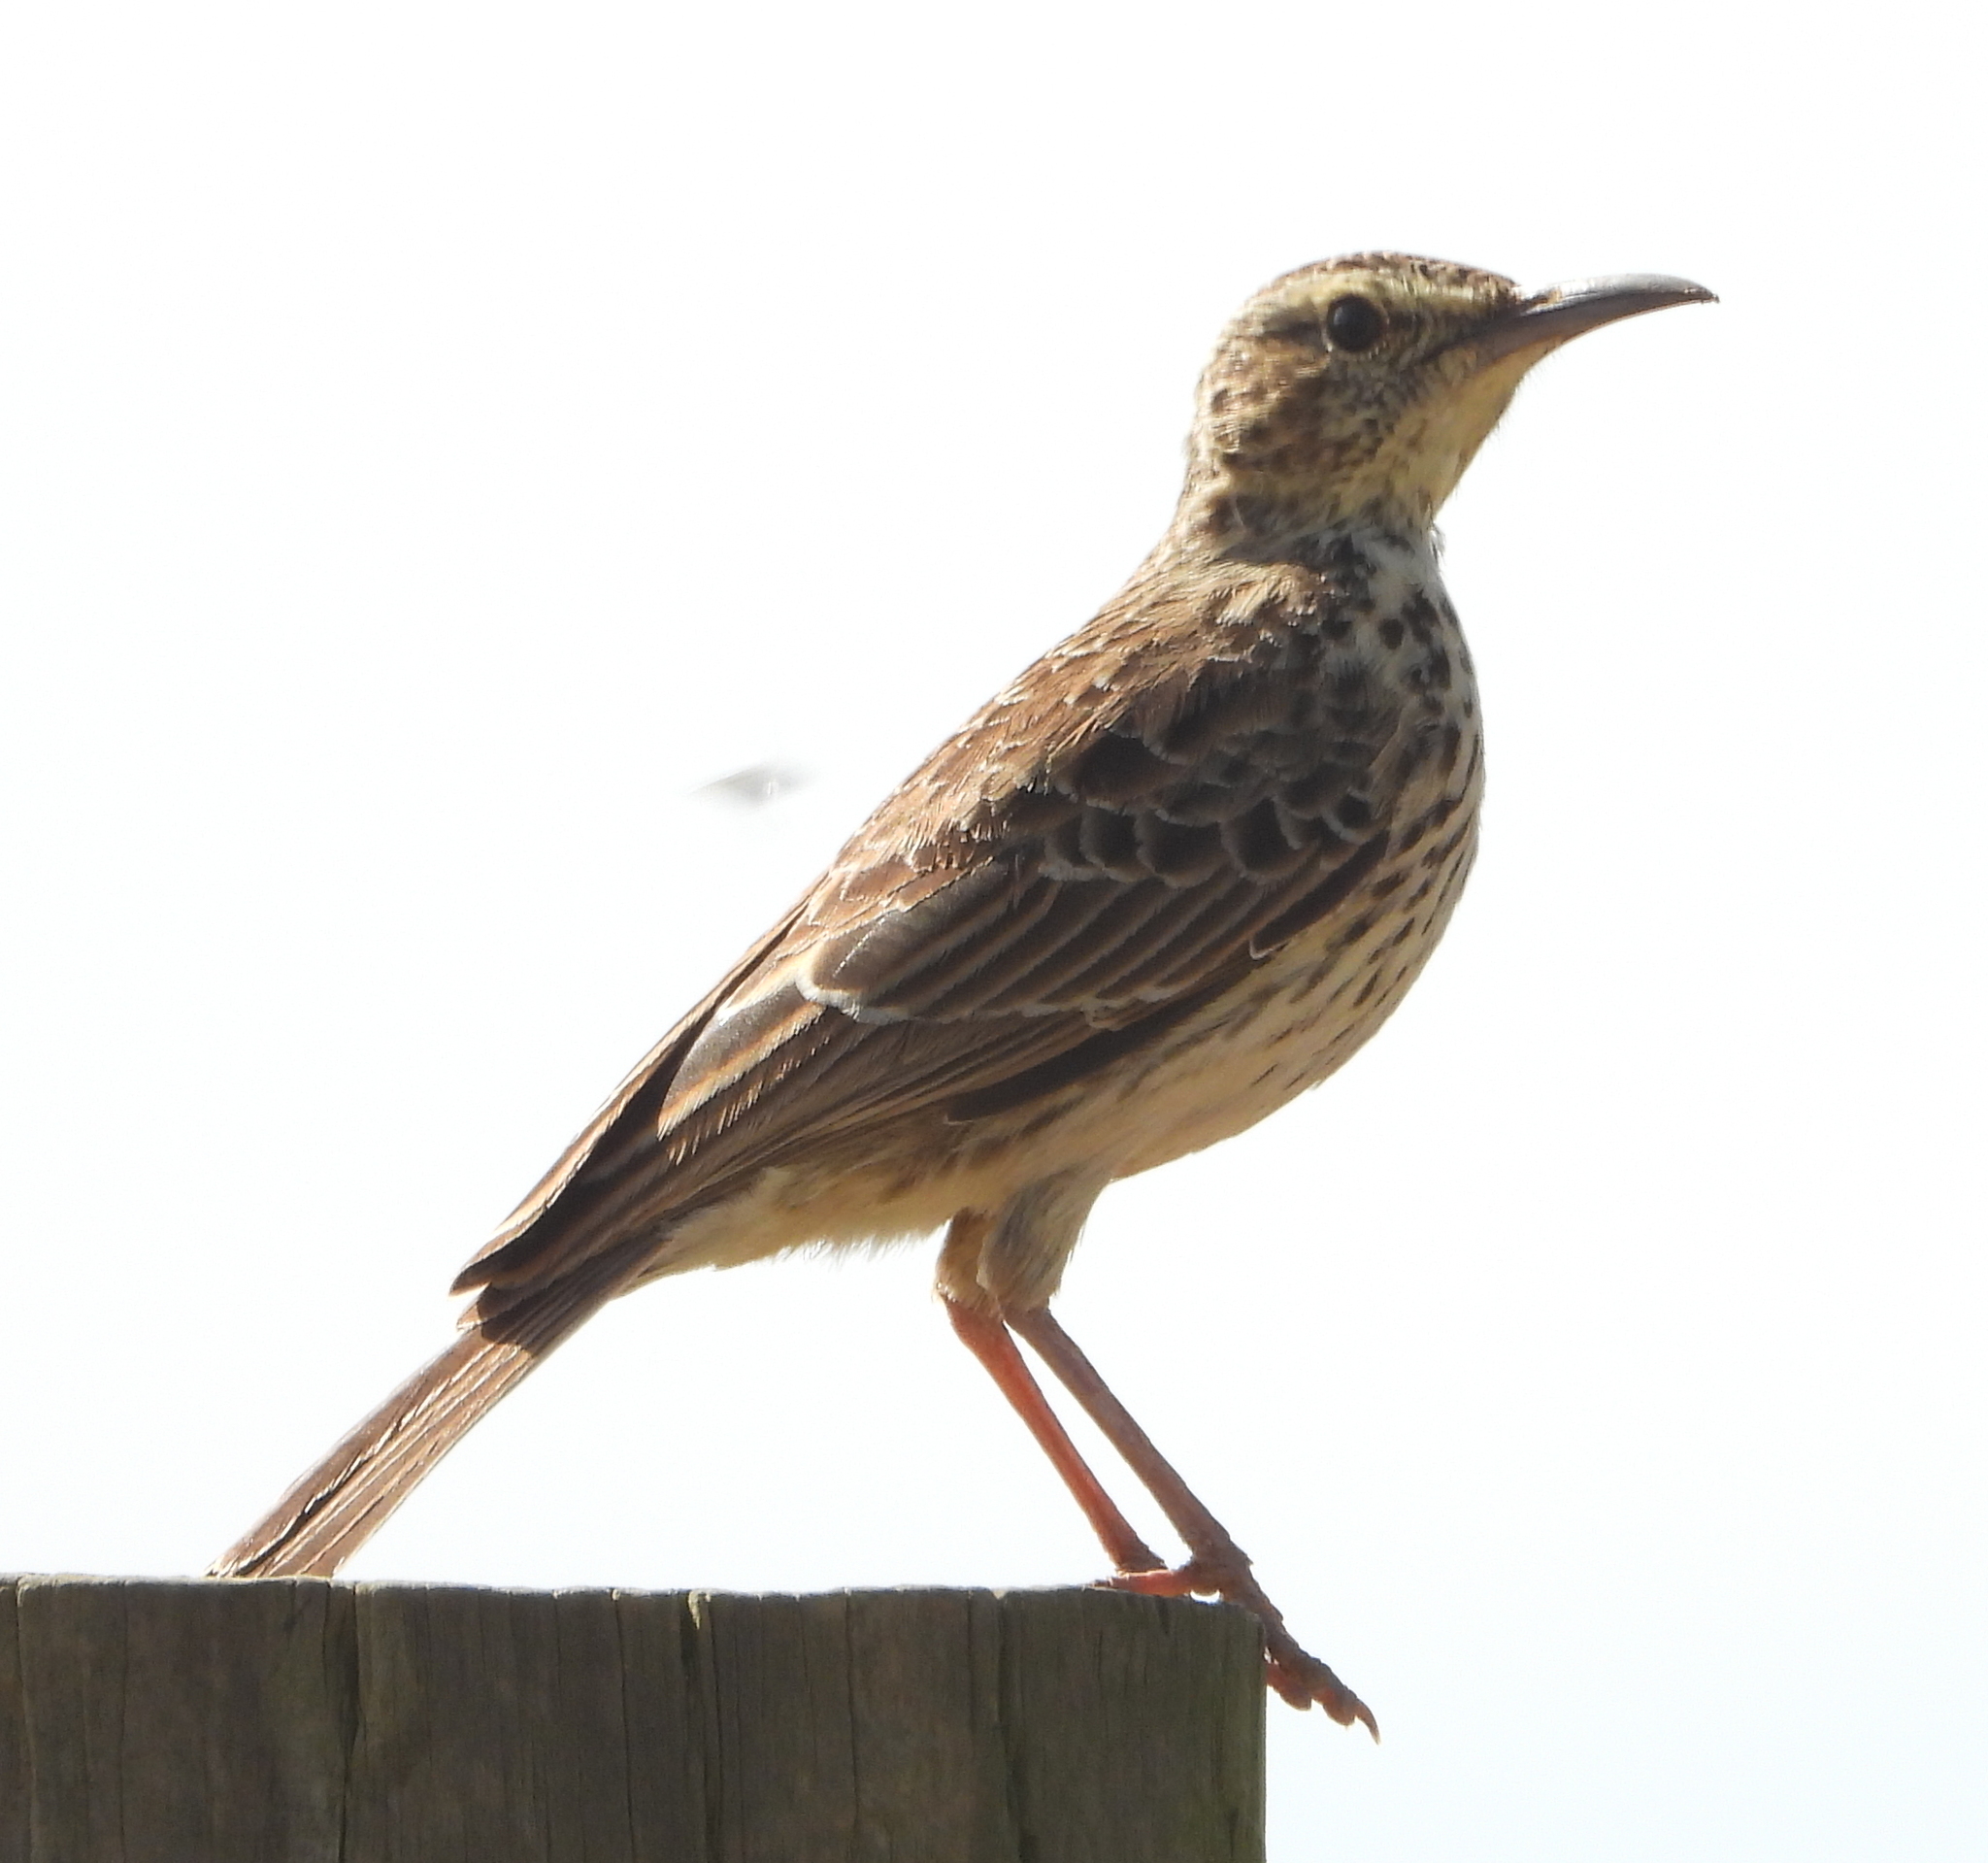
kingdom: Animalia
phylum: Chordata
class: Aves
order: Passeriformes
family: Alaudidae
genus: Certhilauda
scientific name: Certhilauda curvirostris
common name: Cape long-billed lark
